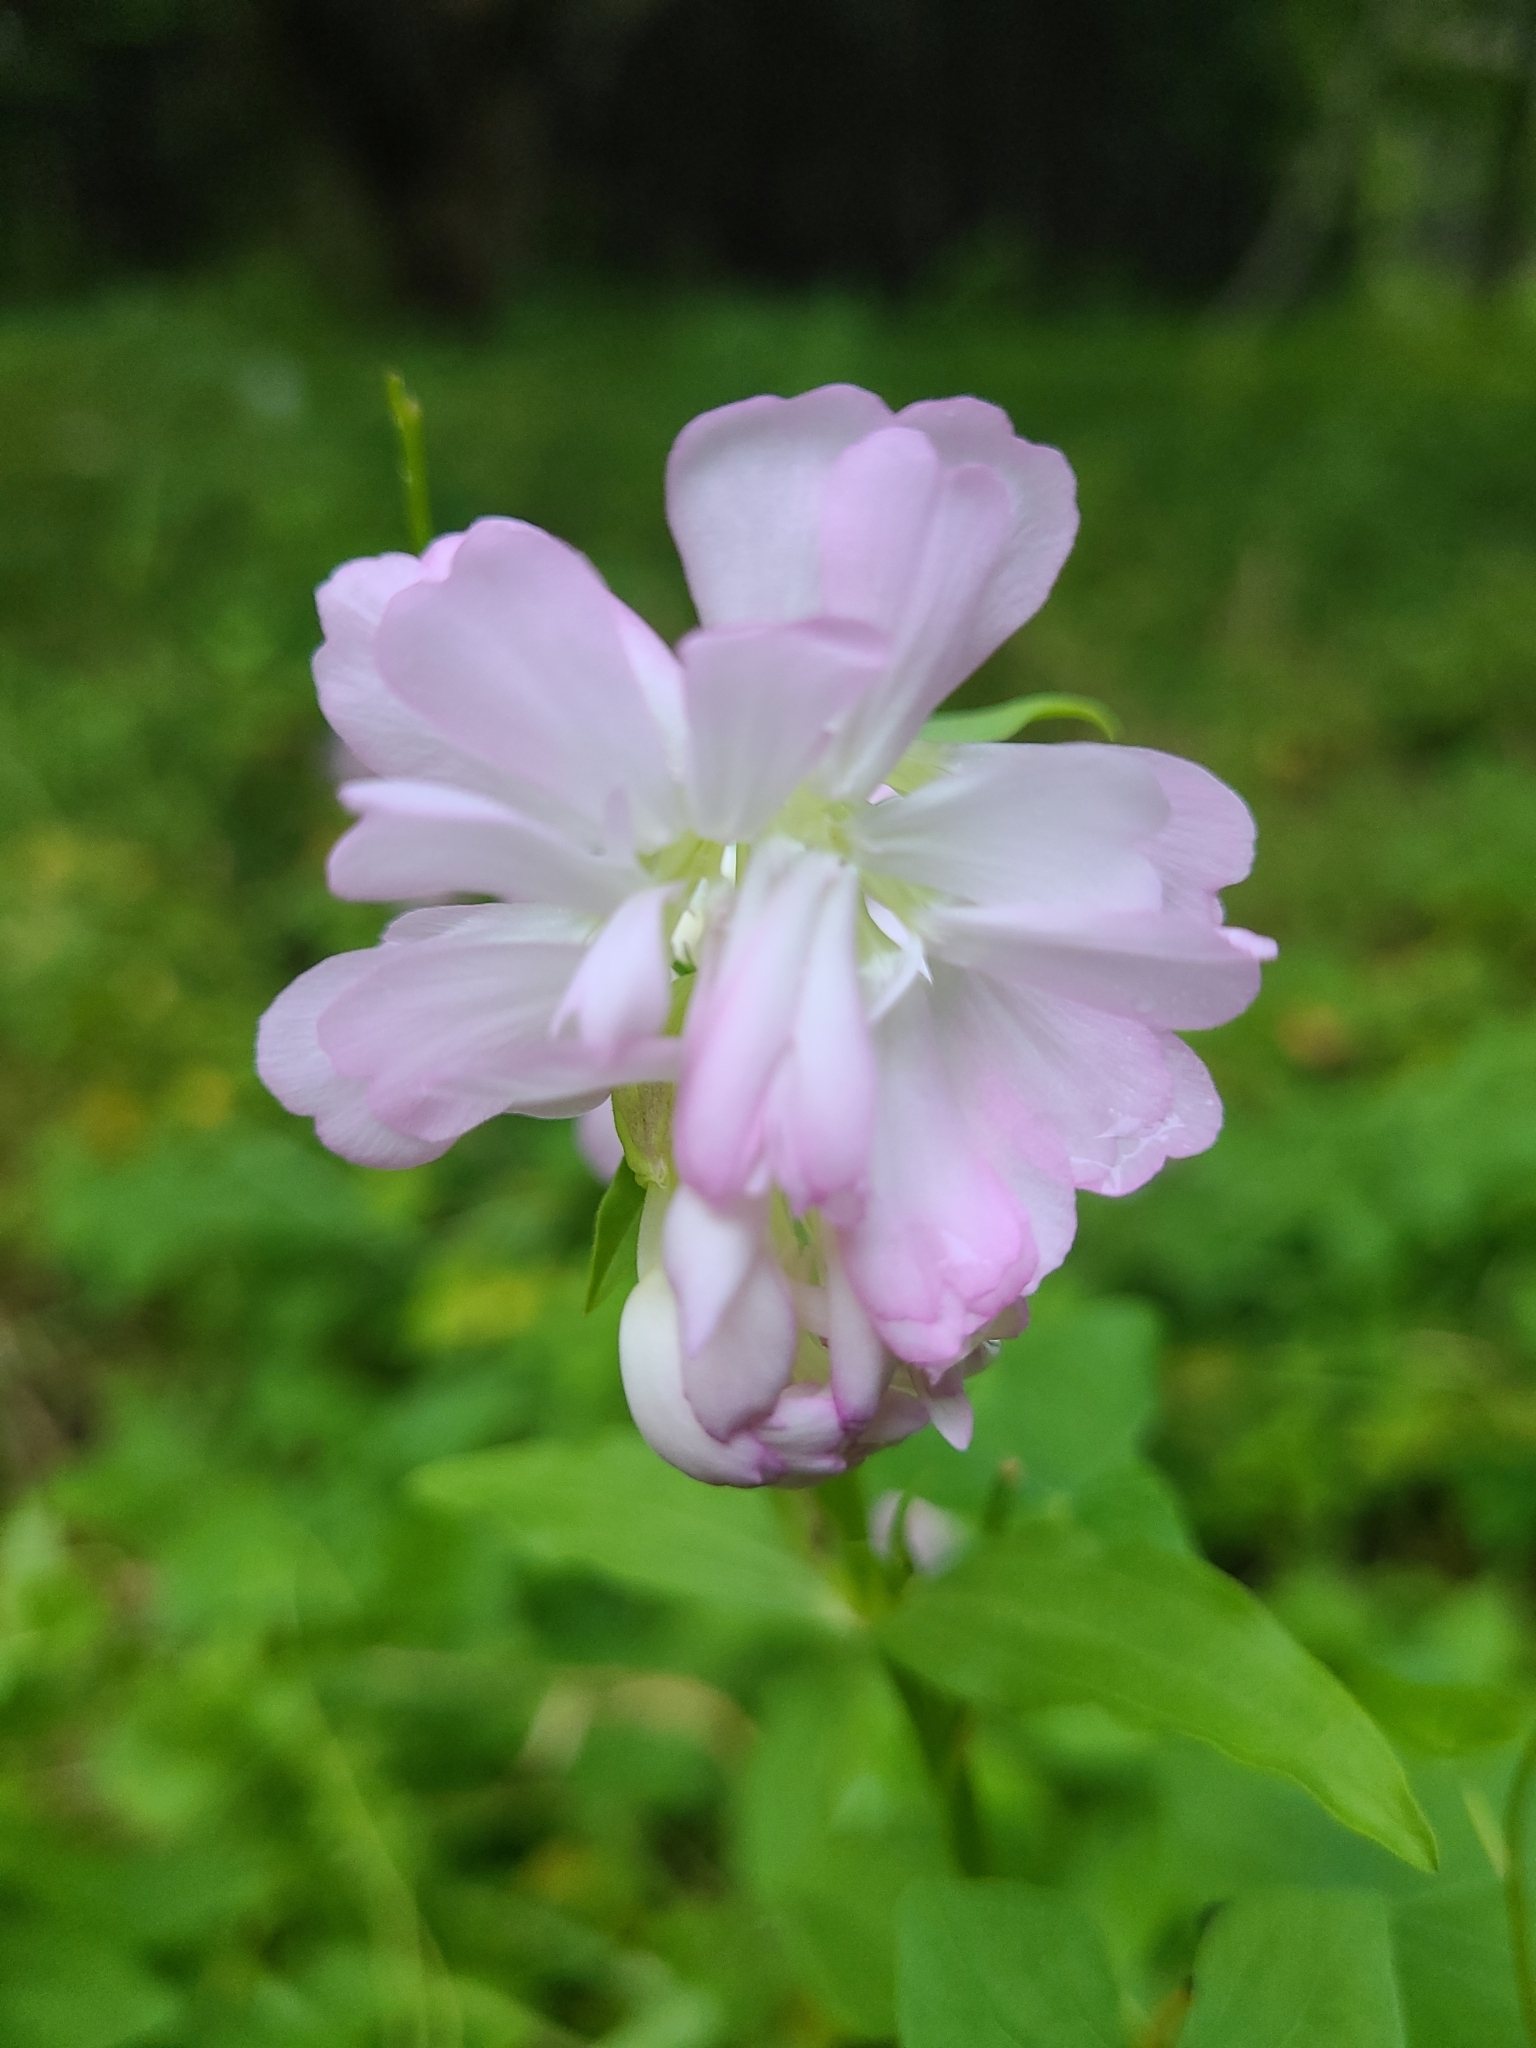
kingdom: Plantae
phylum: Tracheophyta
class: Magnoliopsida
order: Caryophyllales
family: Caryophyllaceae
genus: Saponaria
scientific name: Saponaria officinalis
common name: Soapwort
